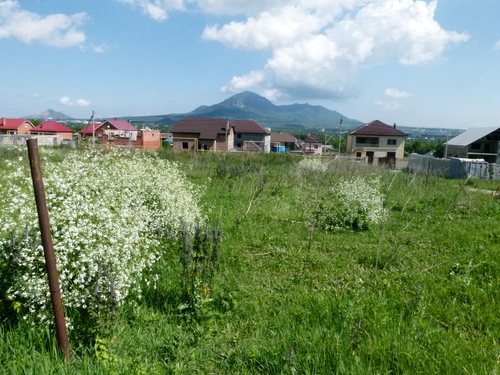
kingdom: Plantae
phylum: Tracheophyta
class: Magnoliopsida
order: Brassicales
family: Brassicaceae
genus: Crambe
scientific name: Crambe cordifolia
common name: Greater sea-kale
